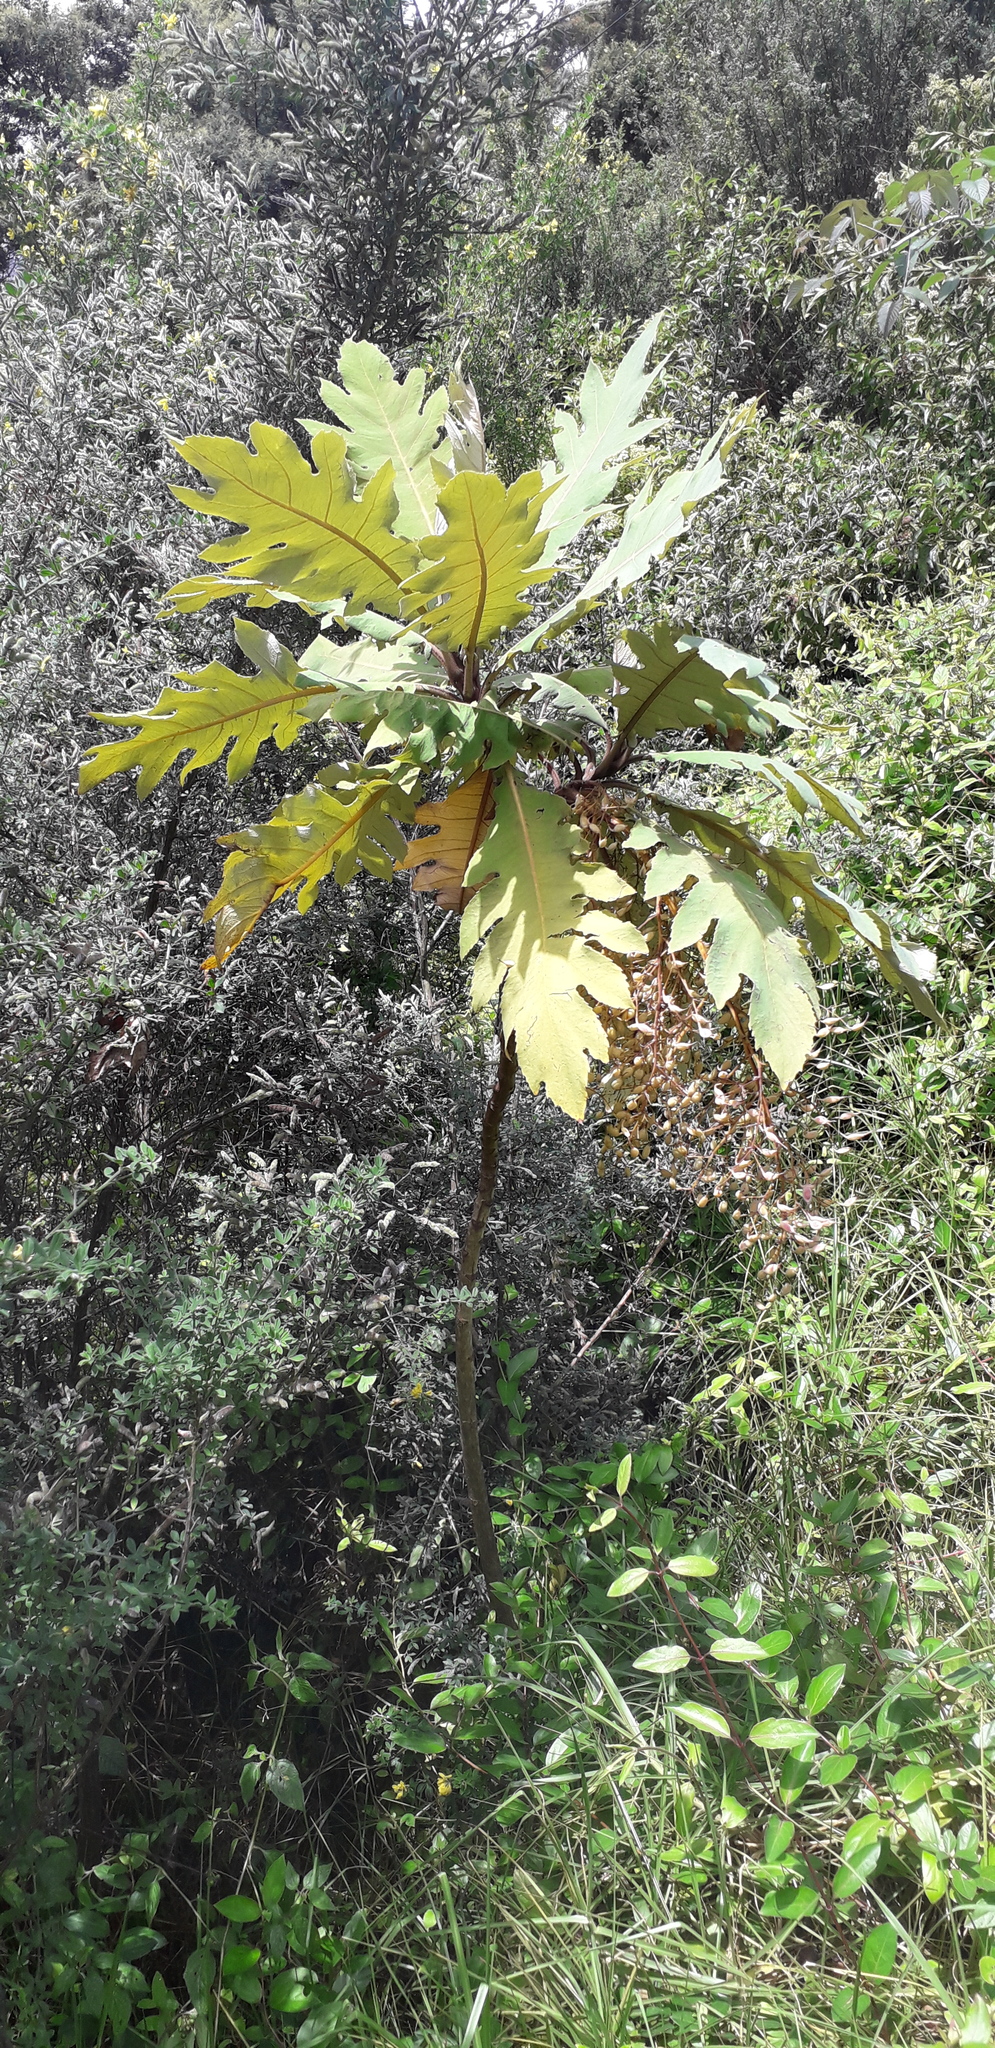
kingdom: Plantae
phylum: Tracheophyta
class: Magnoliopsida
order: Ranunculales
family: Papaveraceae
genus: Bocconia
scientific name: Bocconia frutescens
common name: Tree poppy
